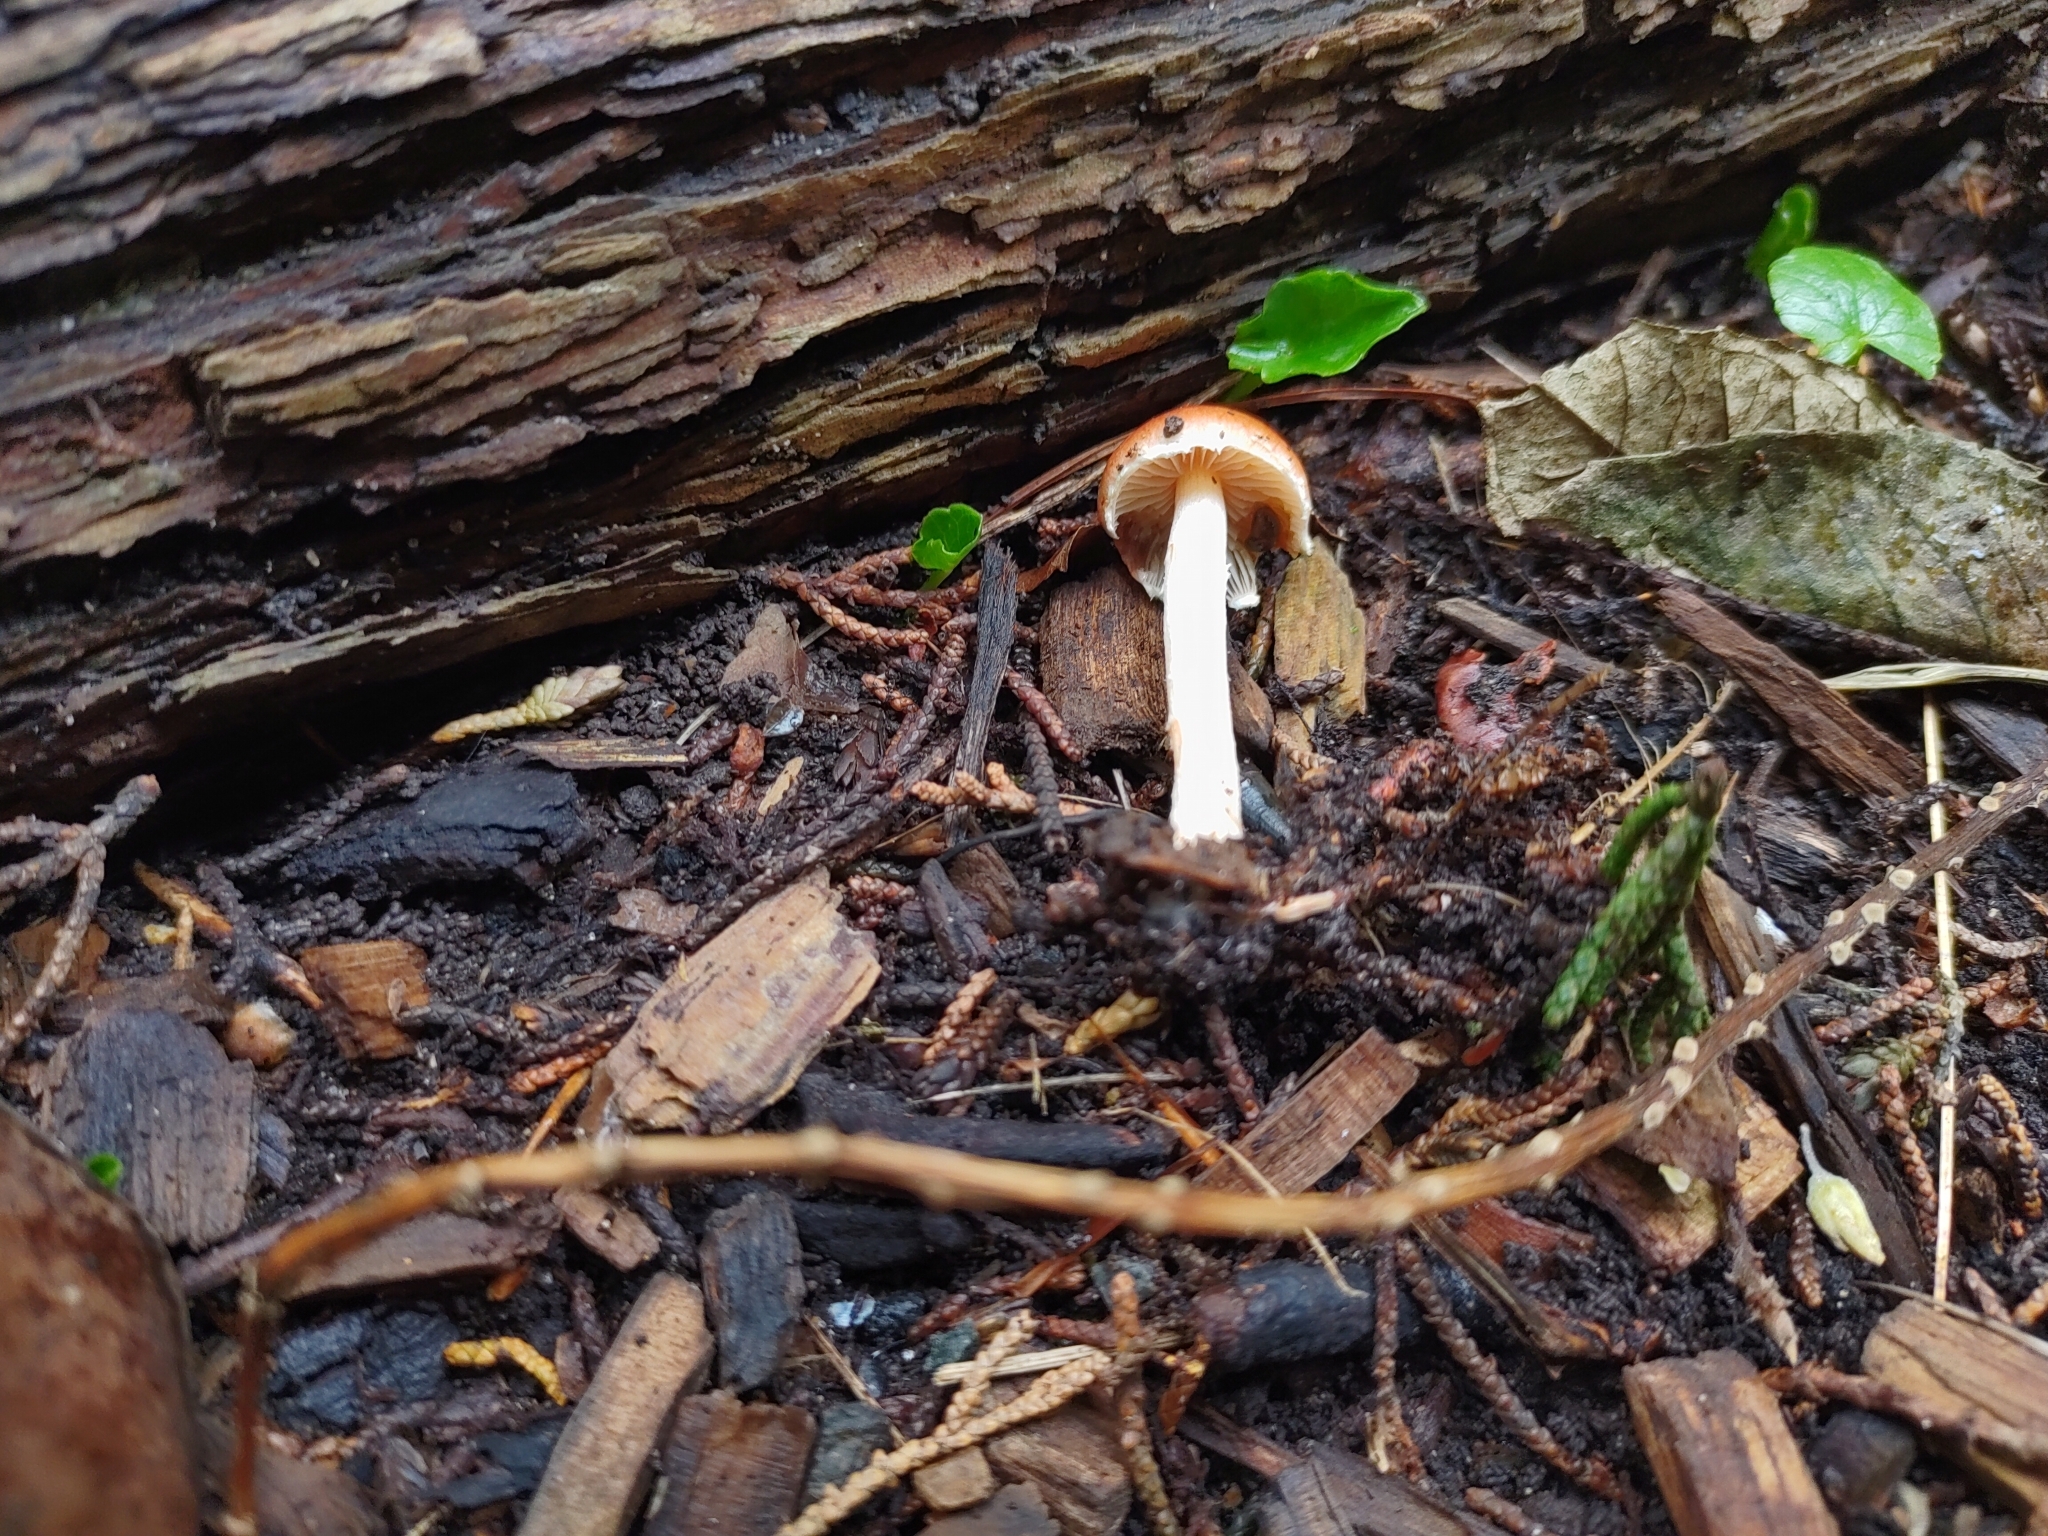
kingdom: Fungi
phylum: Basidiomycota
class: Agaricomycetes
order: Agaricales
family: Strophariaceae
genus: Leratiomyces
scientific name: Leratiomyces ceres
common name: Redlead roundhead
